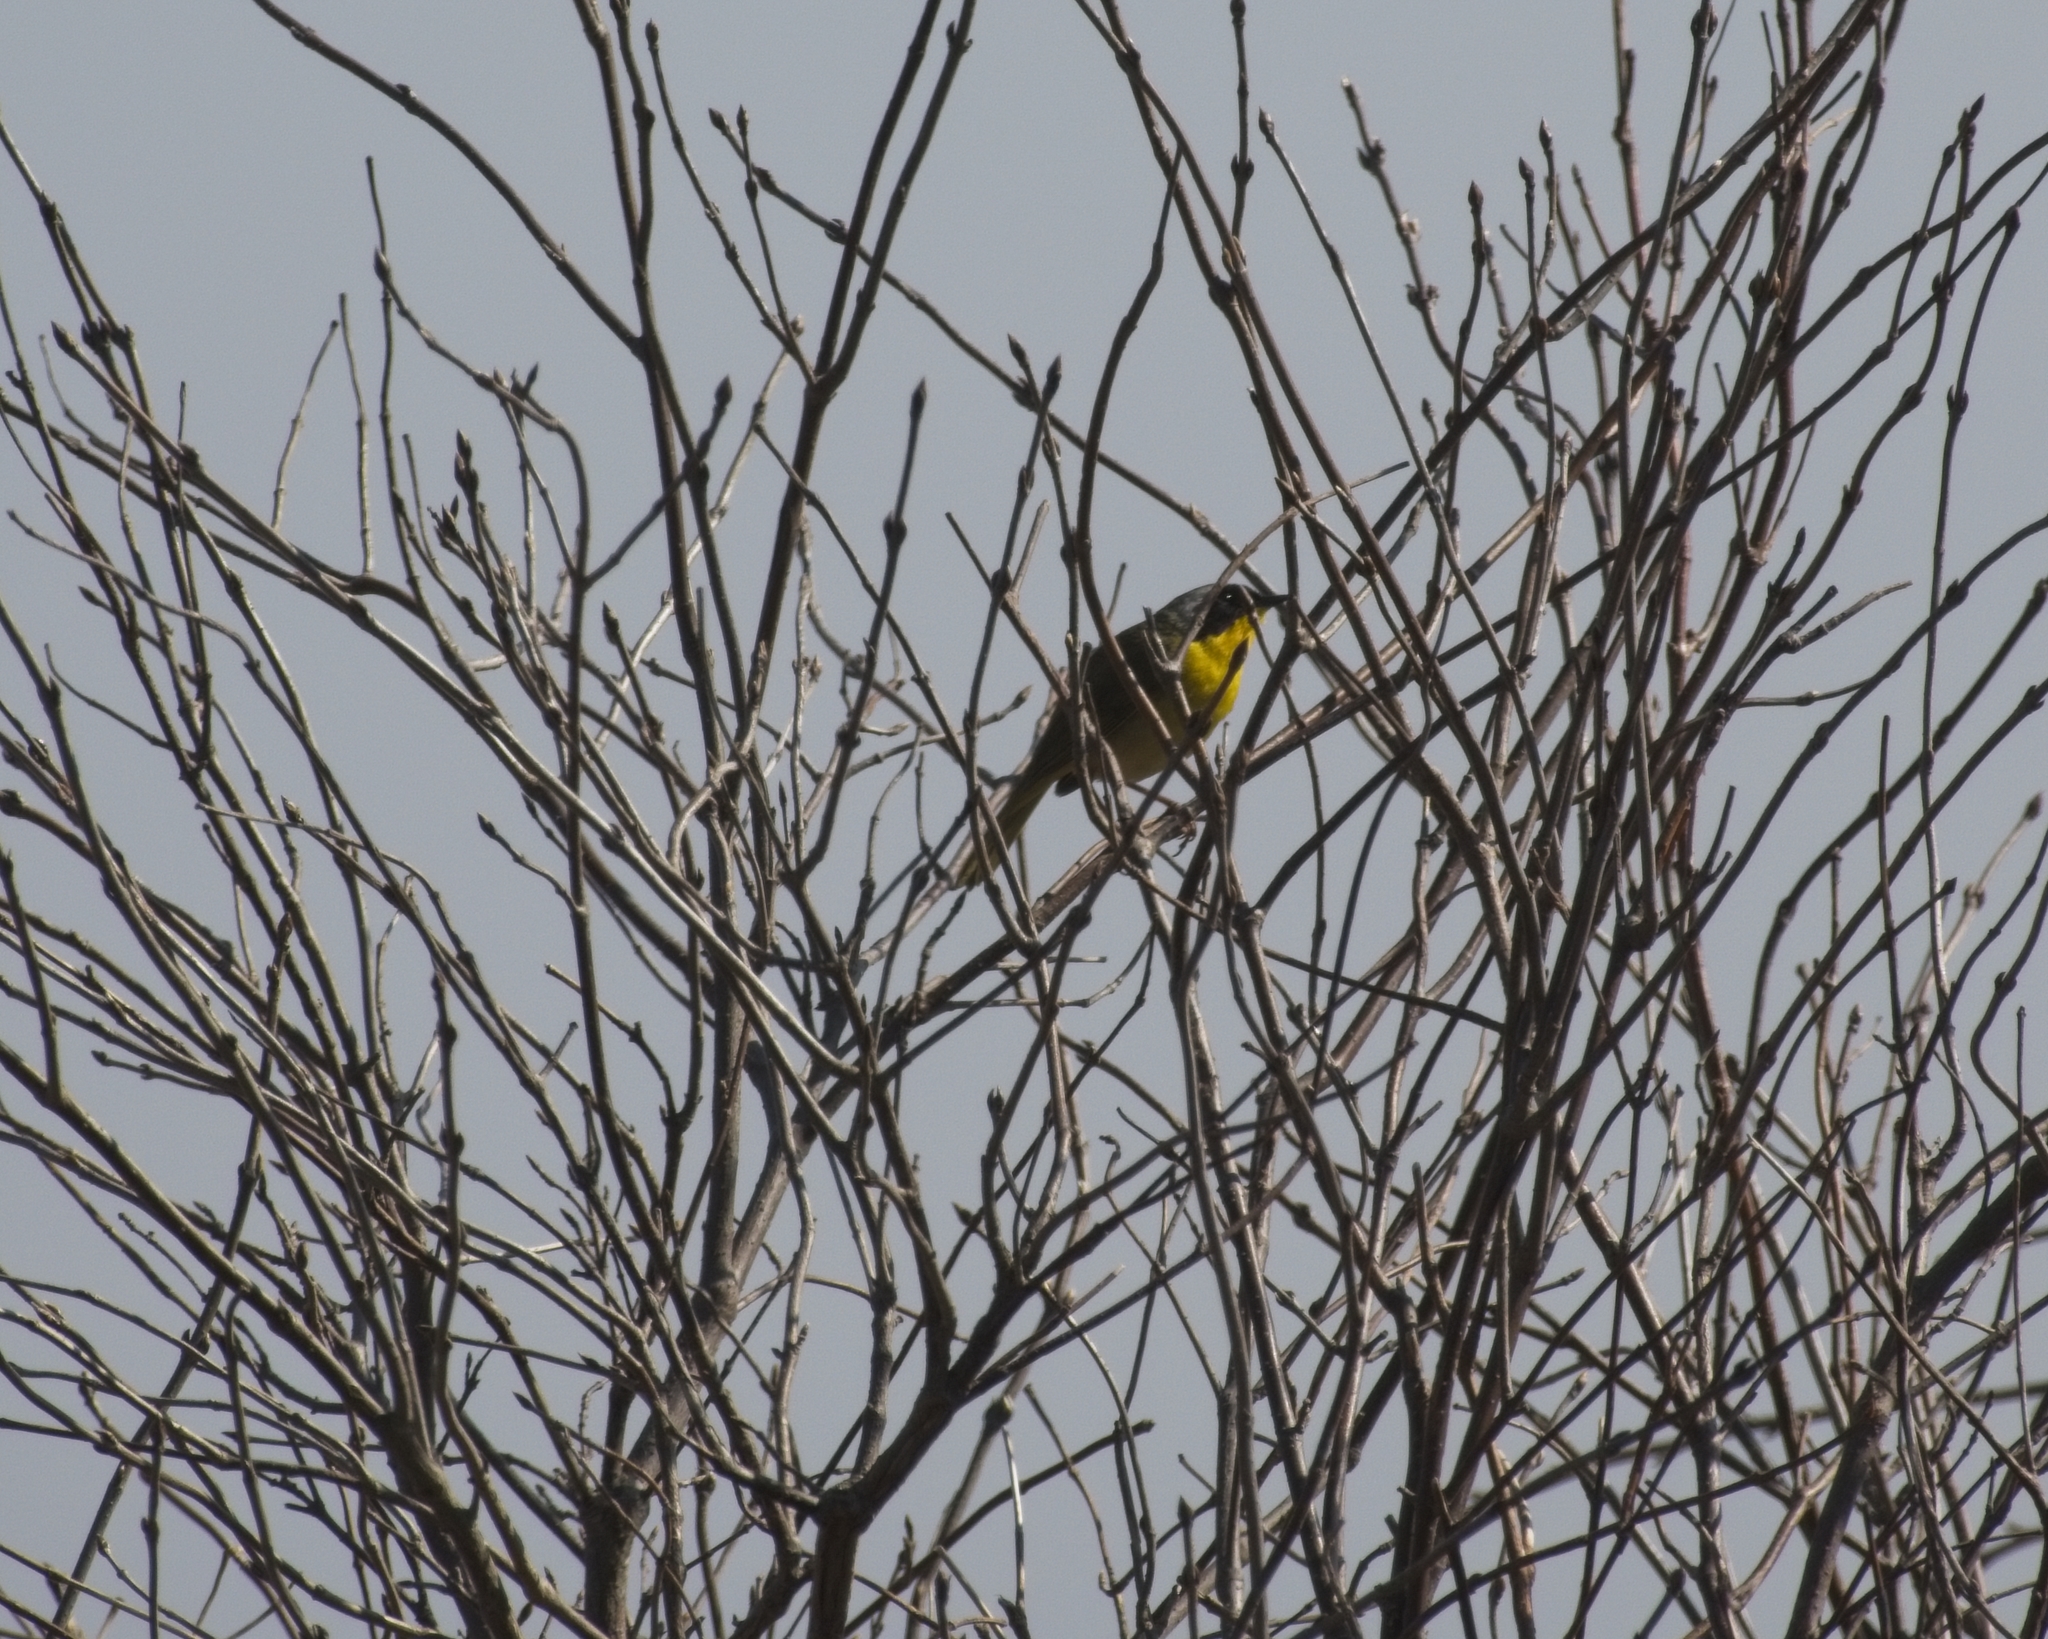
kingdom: Animalia
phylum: Chordata
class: Aves
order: Passeriformes
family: Parulidae
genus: Geothlypis
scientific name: Geothlypis trichas
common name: Common yellowthroat
